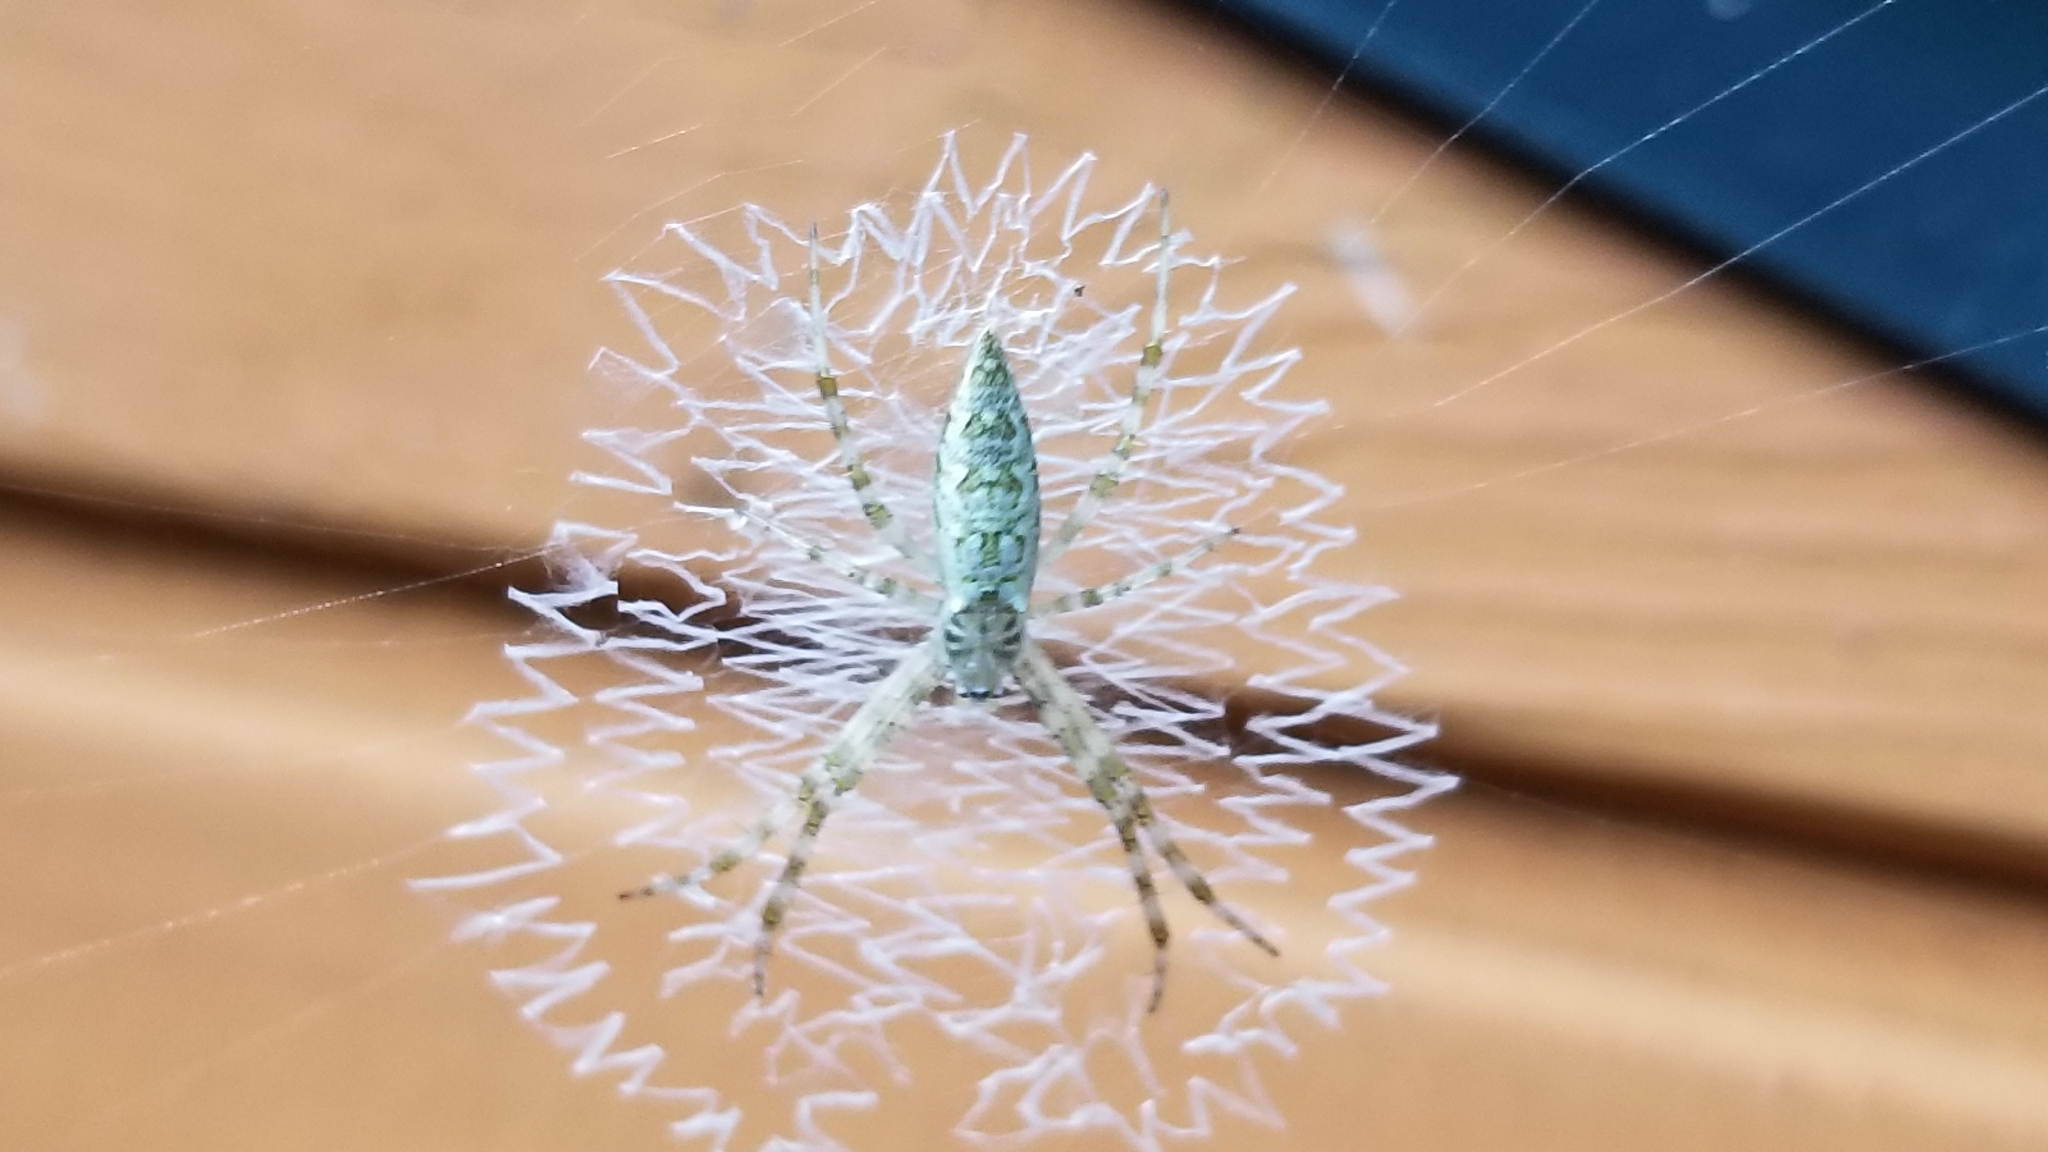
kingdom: Animalia
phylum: Arthropoda
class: Arachnida
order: Araneae
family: Araneidae
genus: Argiope
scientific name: Argiope aurantia
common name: Orb weavers
